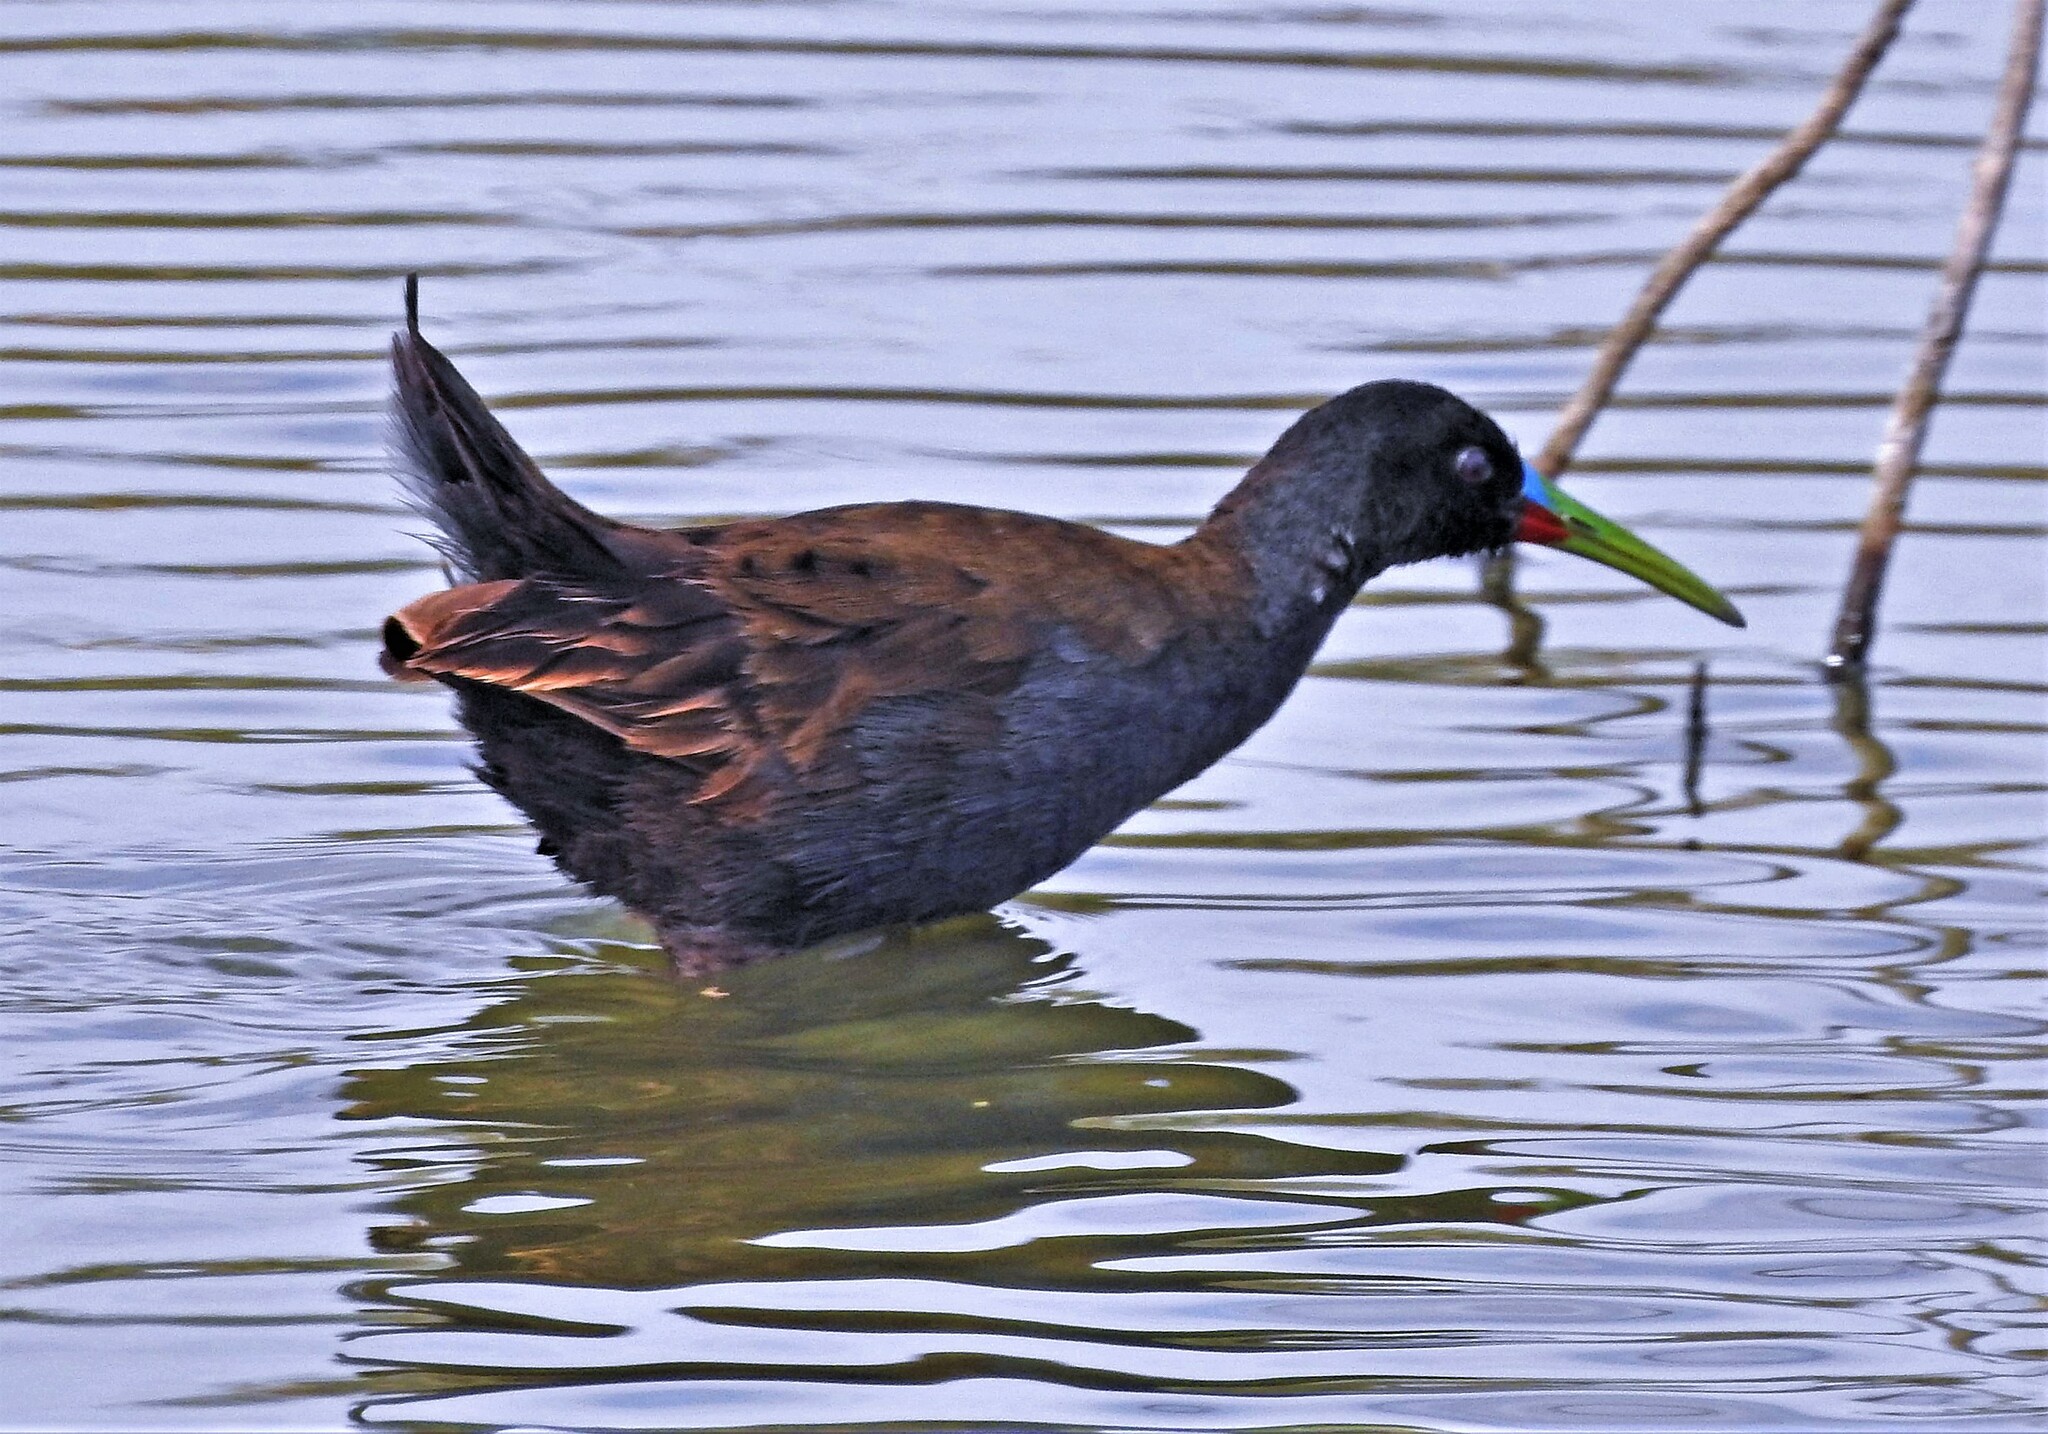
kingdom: Animalia
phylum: Chordata
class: Aves
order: Gruiformes
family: Rallidae
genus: Pardirallus
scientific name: Pardirallus sanguinolentus
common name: Plumbeous rail
